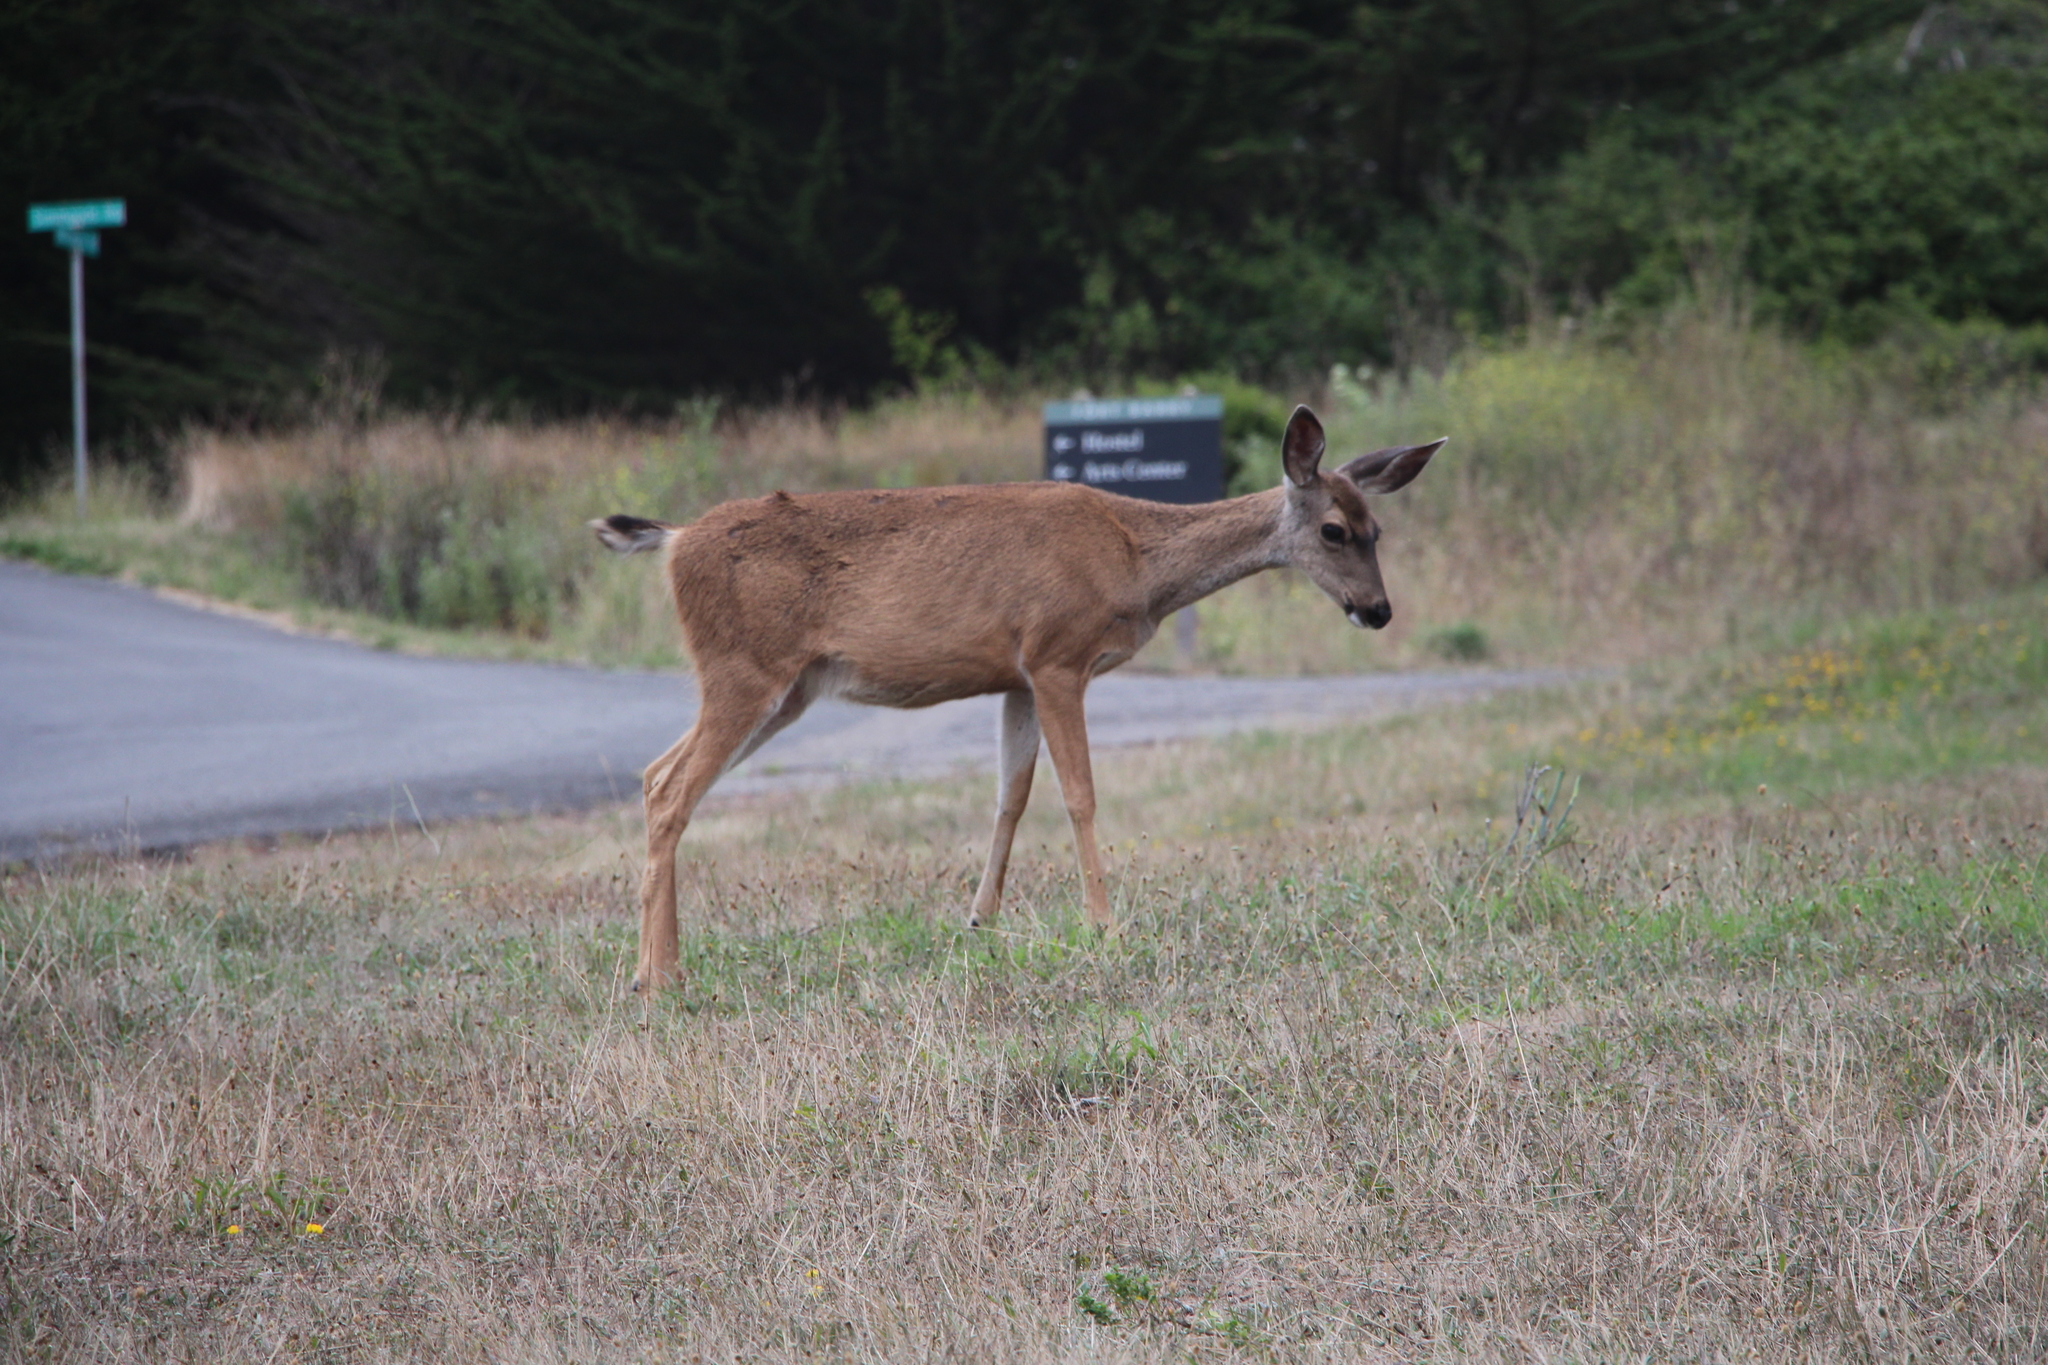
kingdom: Animalia
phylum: Chordata
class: Mammalia
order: Artiodactyla
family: Cervidae
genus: Odocoileus
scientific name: Odocoileus hemionus
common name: Mule deer
